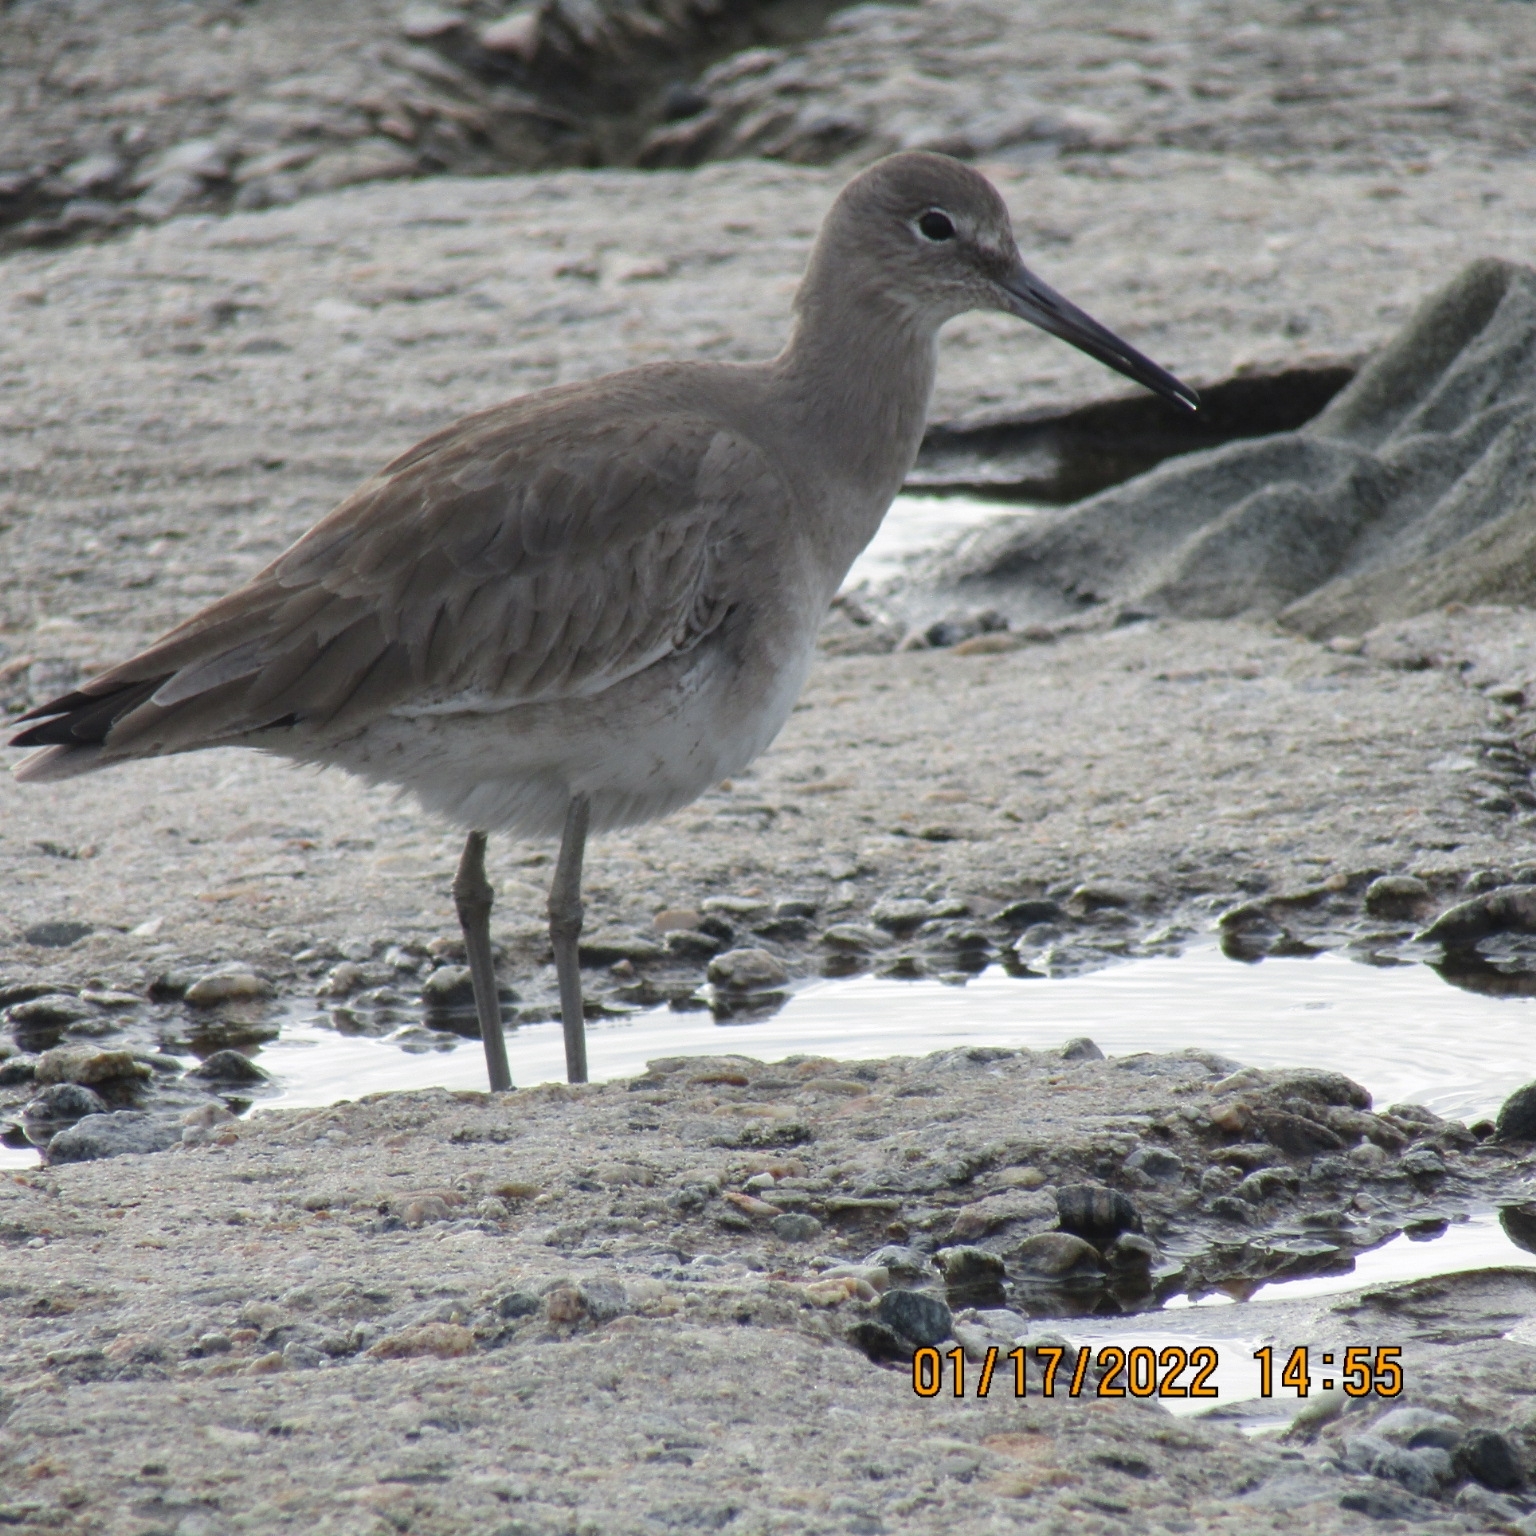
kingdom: Animalia
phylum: Chordata
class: Aves
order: Charadriiformes
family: Scolopacidae
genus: Tringa
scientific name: Tringa semipalmata
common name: Willet
